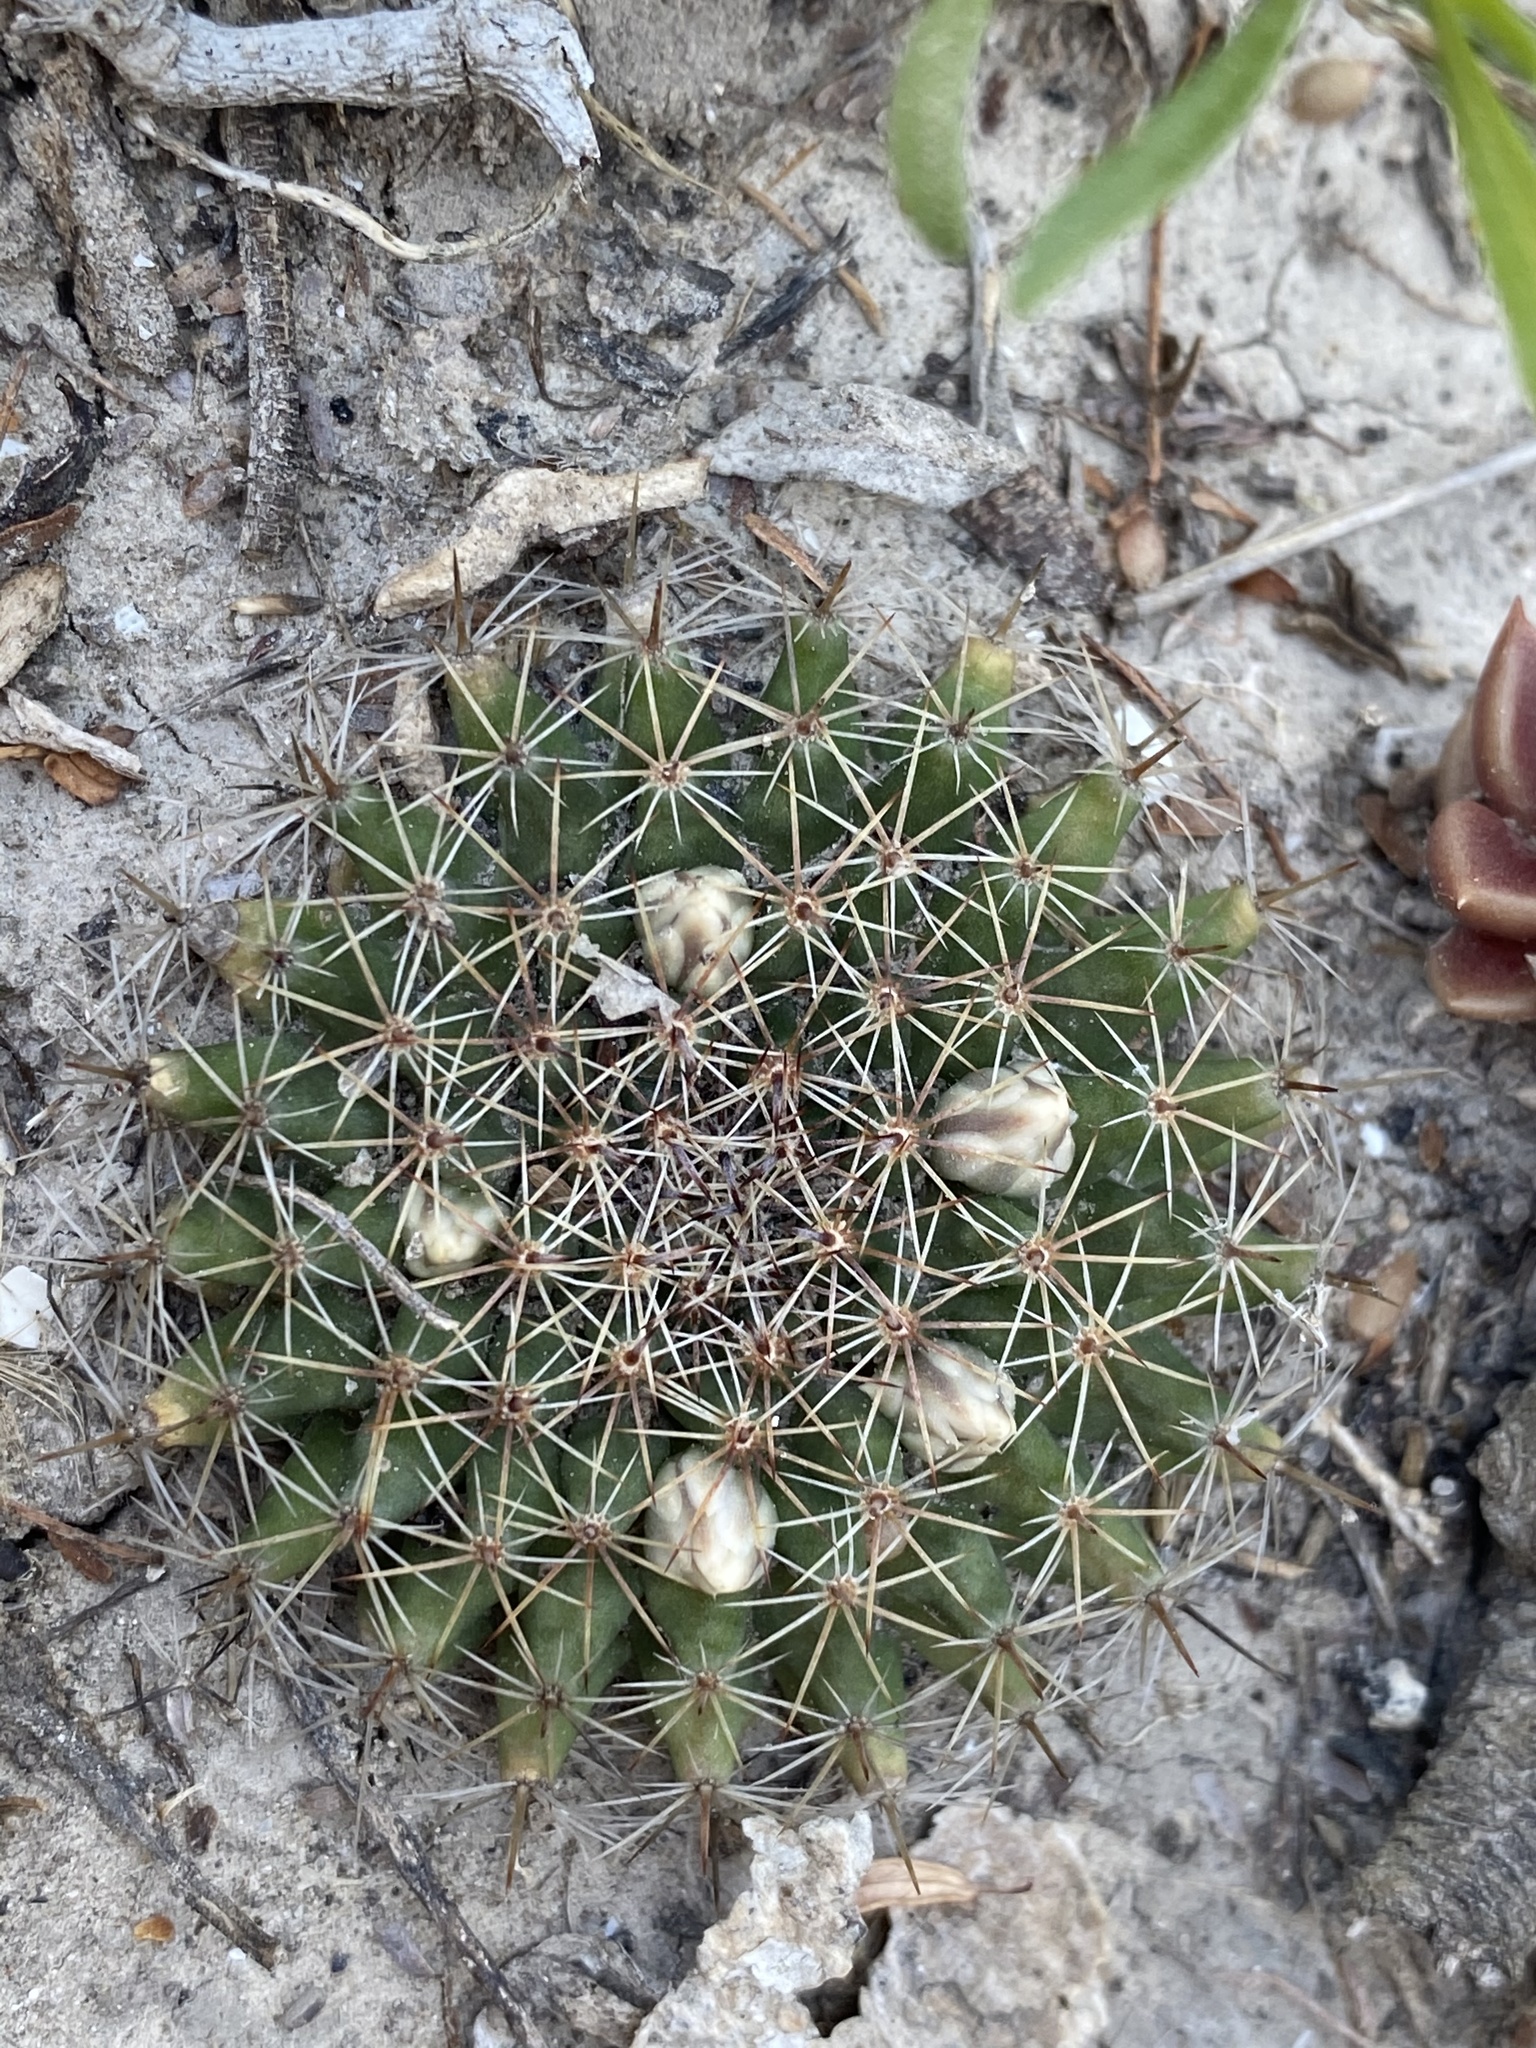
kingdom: Plantae
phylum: Tracheophyta
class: Magnoliopsida
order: Caryophyllales
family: Cactaceae
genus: Mammillaria
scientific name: Mammillaria heyderi
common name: Little nipple cactus
